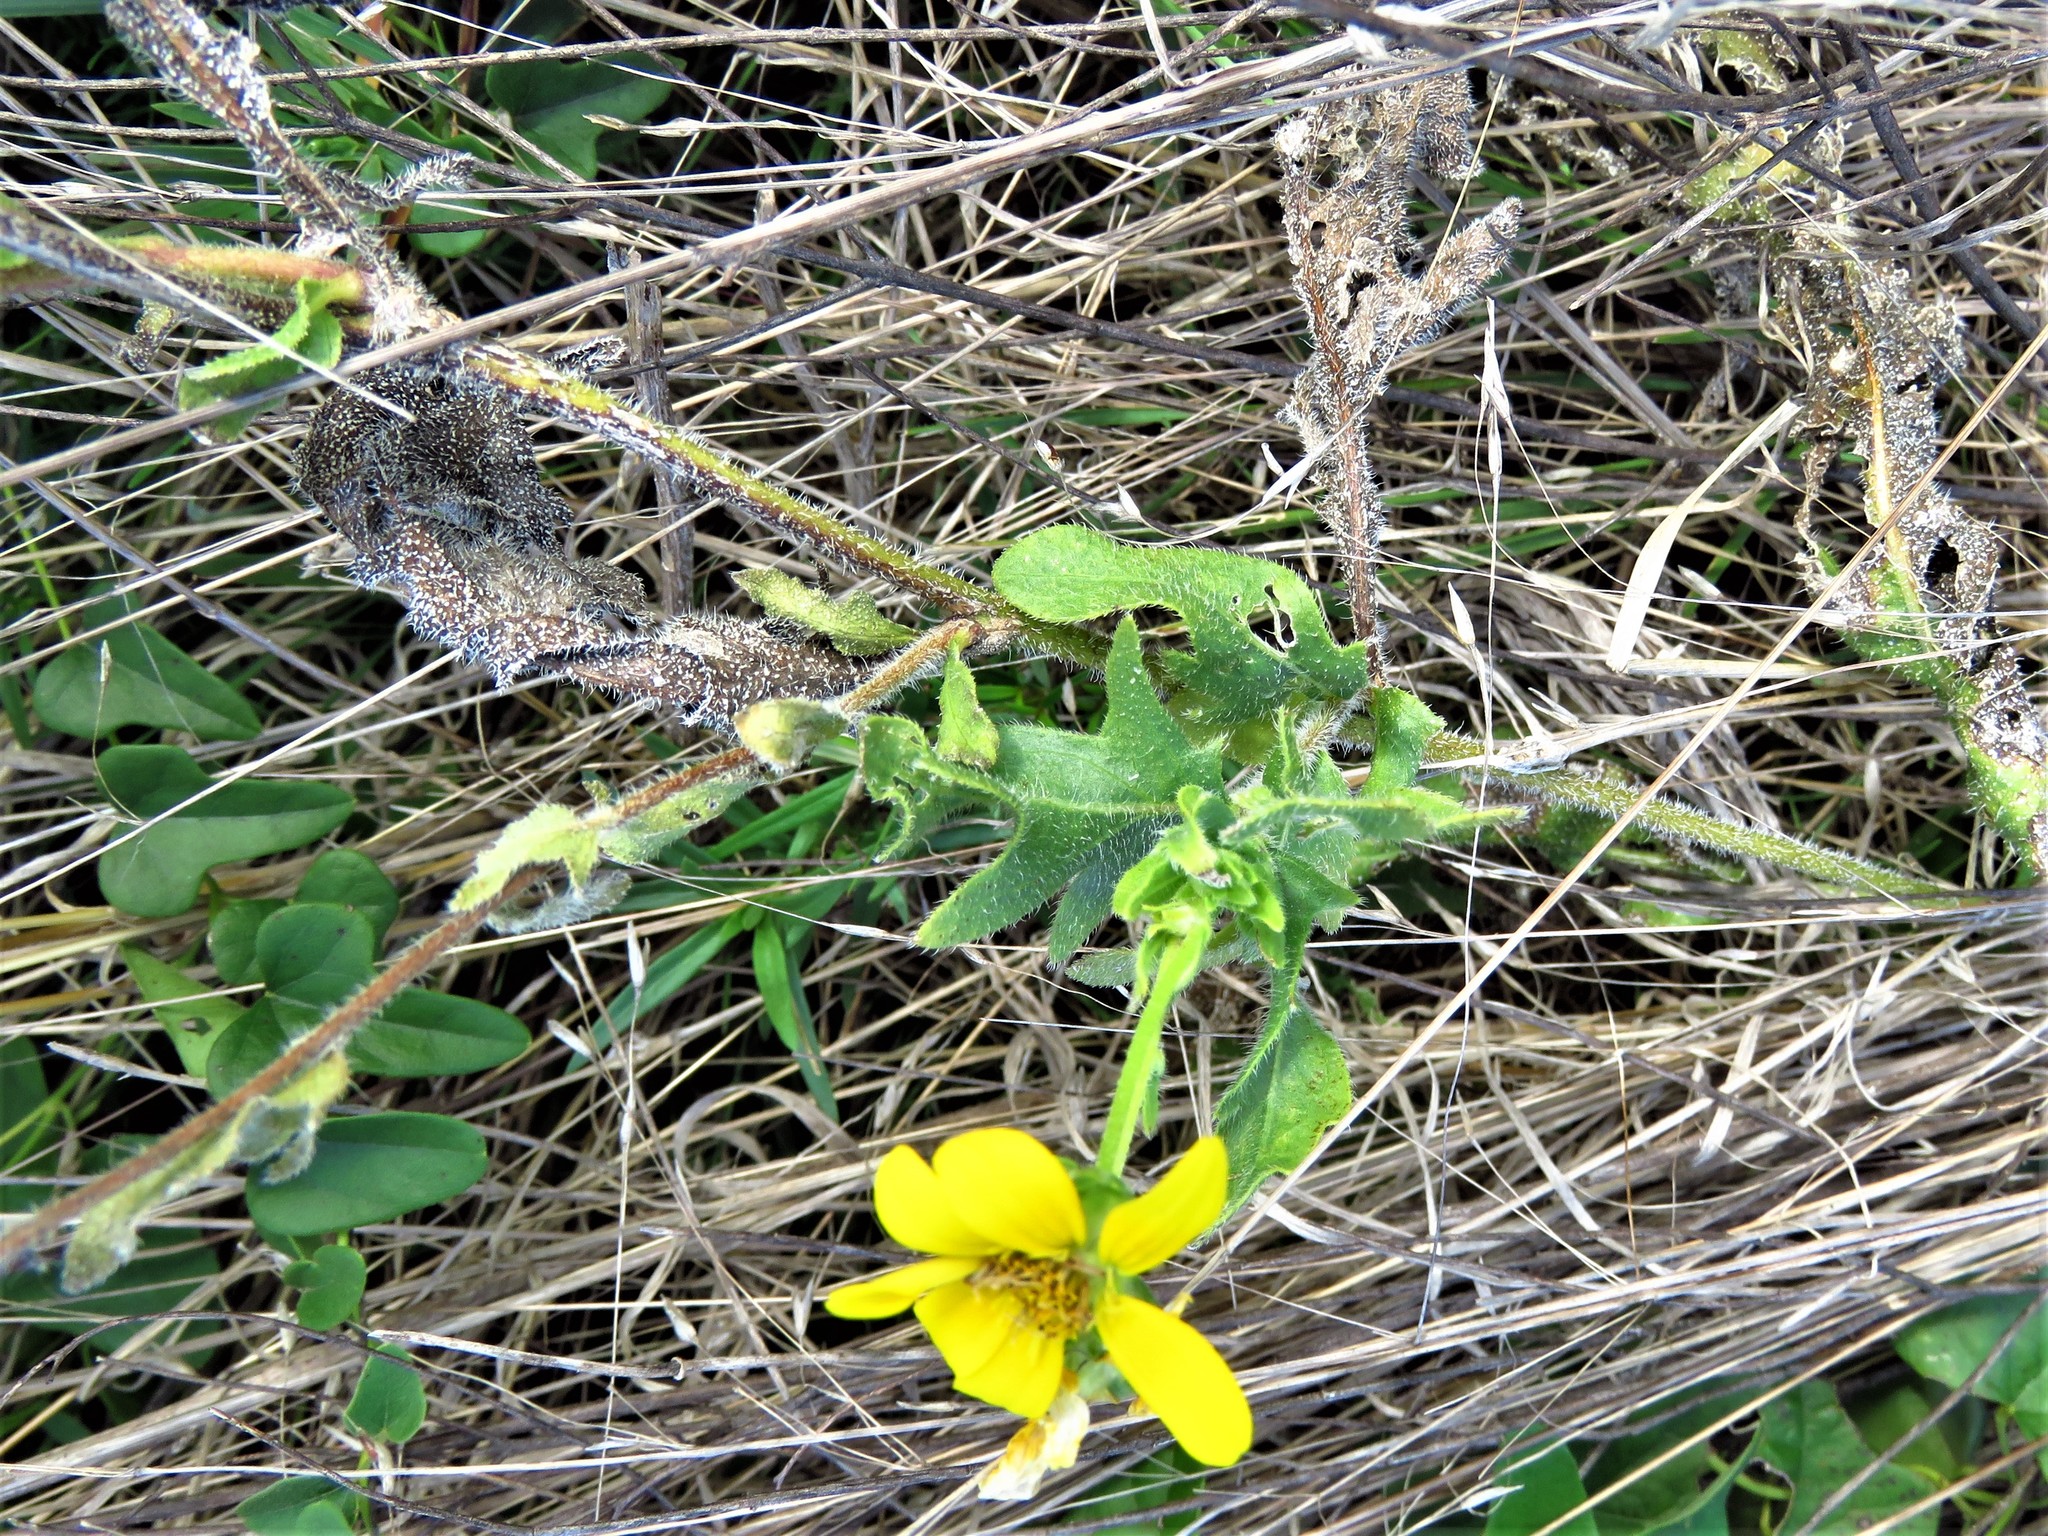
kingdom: Plantae
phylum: Tracheophyta
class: Magnoliopsida
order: Asterales
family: Asteraceae
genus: Engelmannia
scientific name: Engelmannia peristenia
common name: Engelmann's daisy
